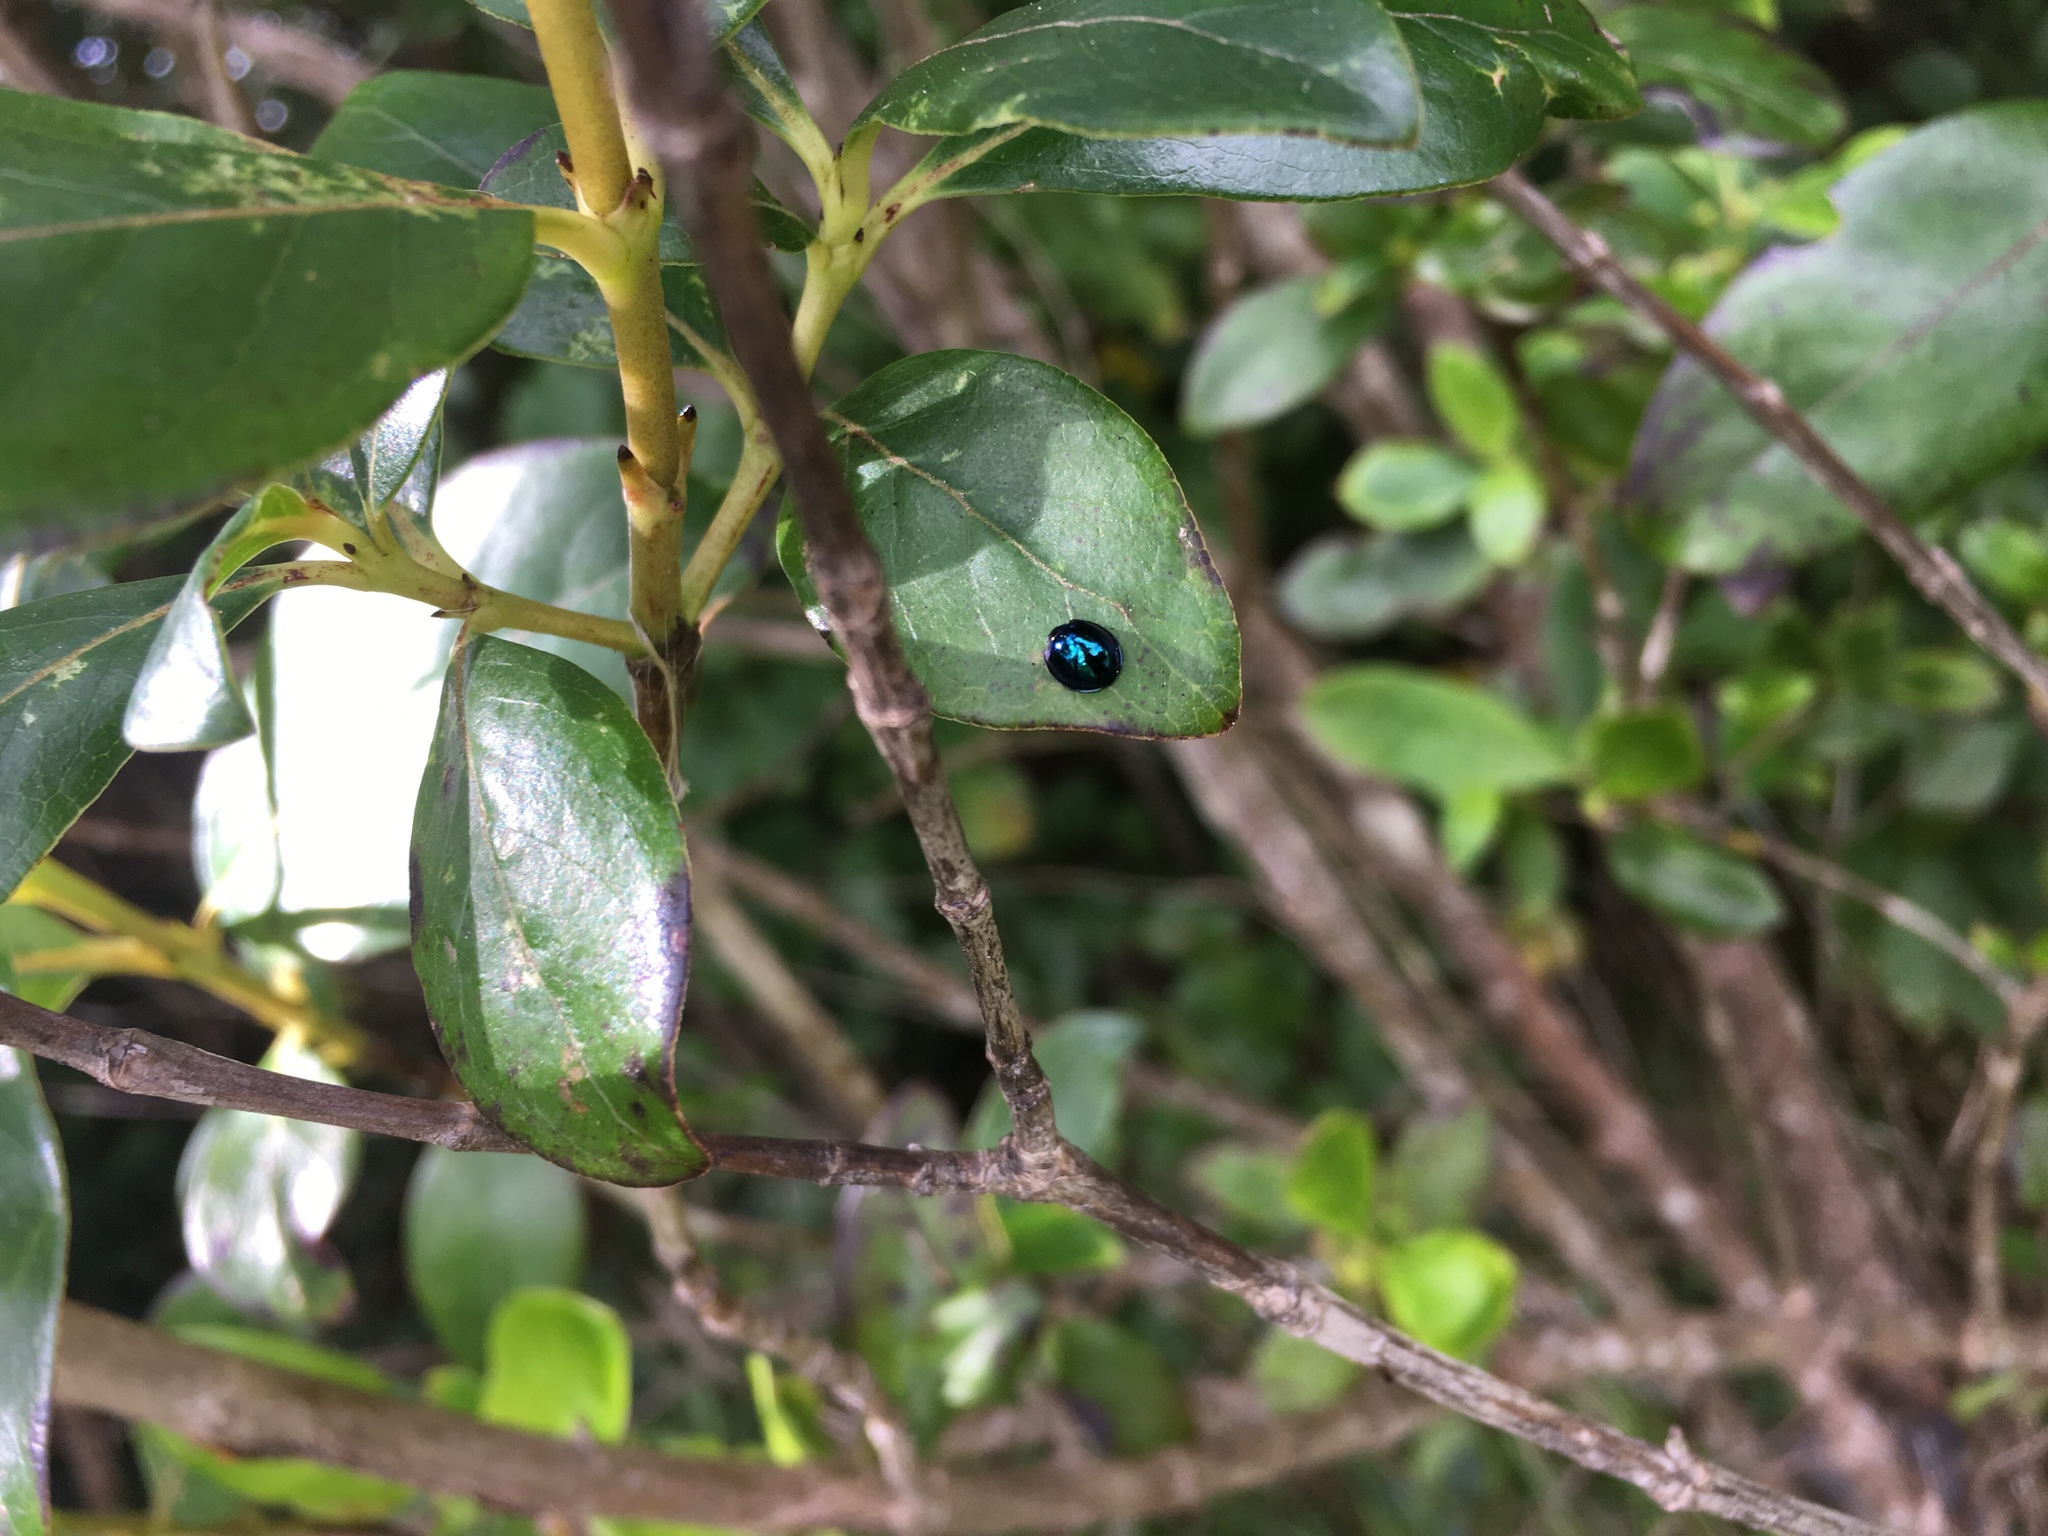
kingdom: Animalia
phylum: Arthropoda
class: Insecta
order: Coleoptera
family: Coccinellidae
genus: Halmus
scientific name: Halmus chalybeus
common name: Steel blue ladybird beetle
